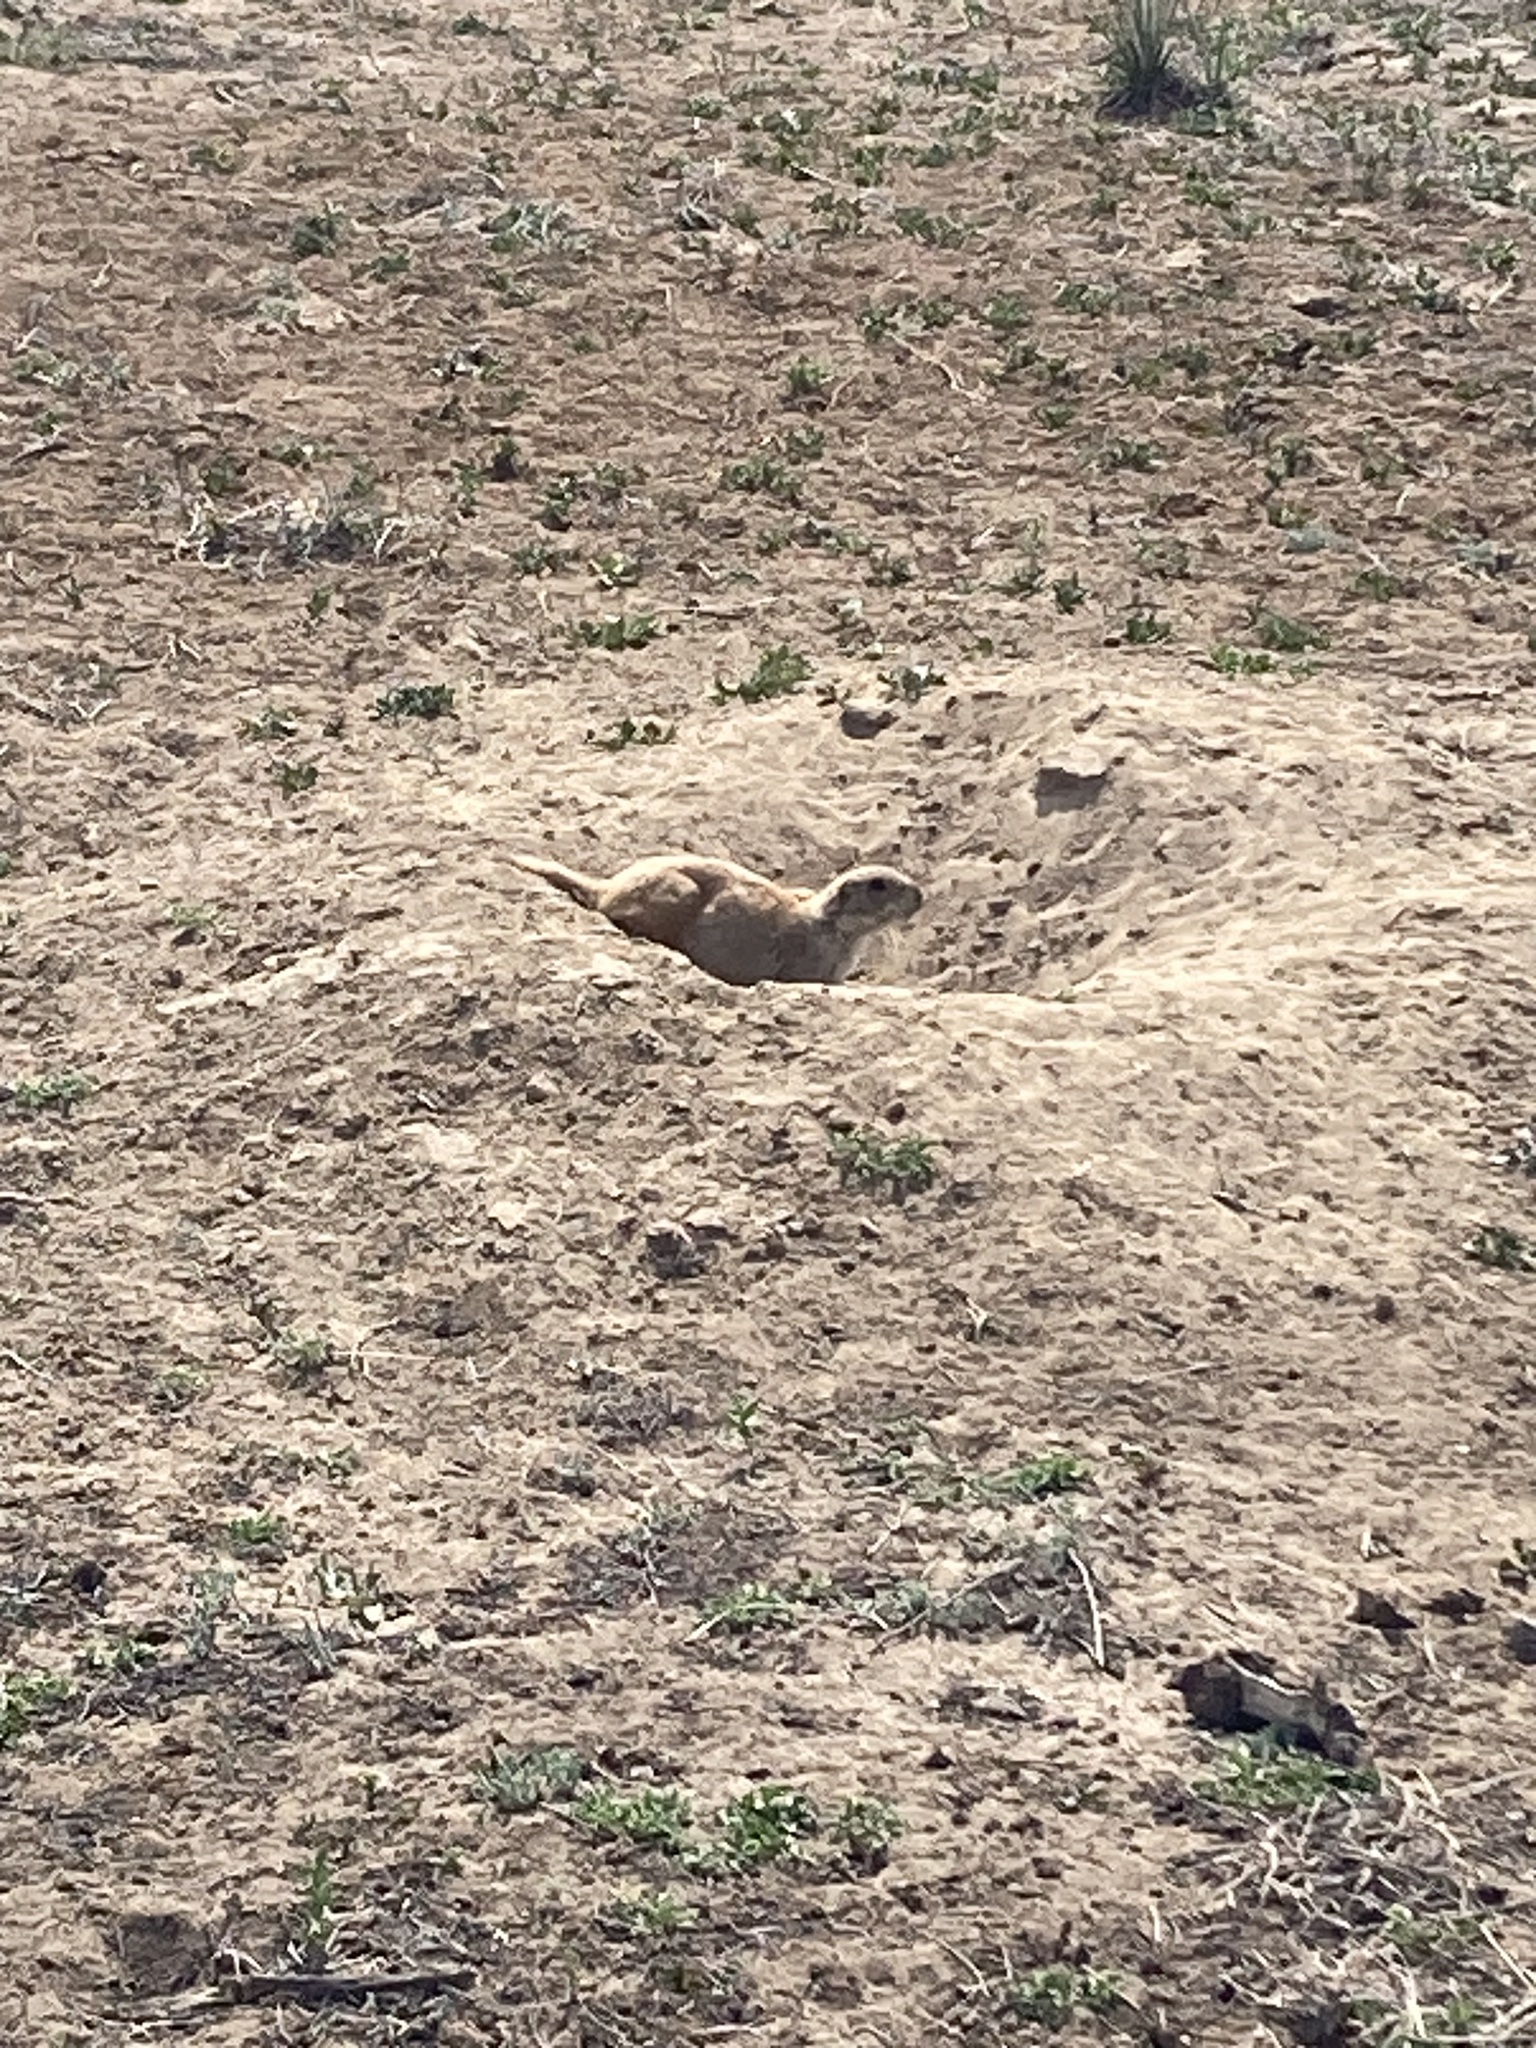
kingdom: Animalia
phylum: Chordata
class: Mammalia
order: Rodentia
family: Sciuridae
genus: Cynomys
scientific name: Cynomys ludovicianus
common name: Black-tailed prairie dog
